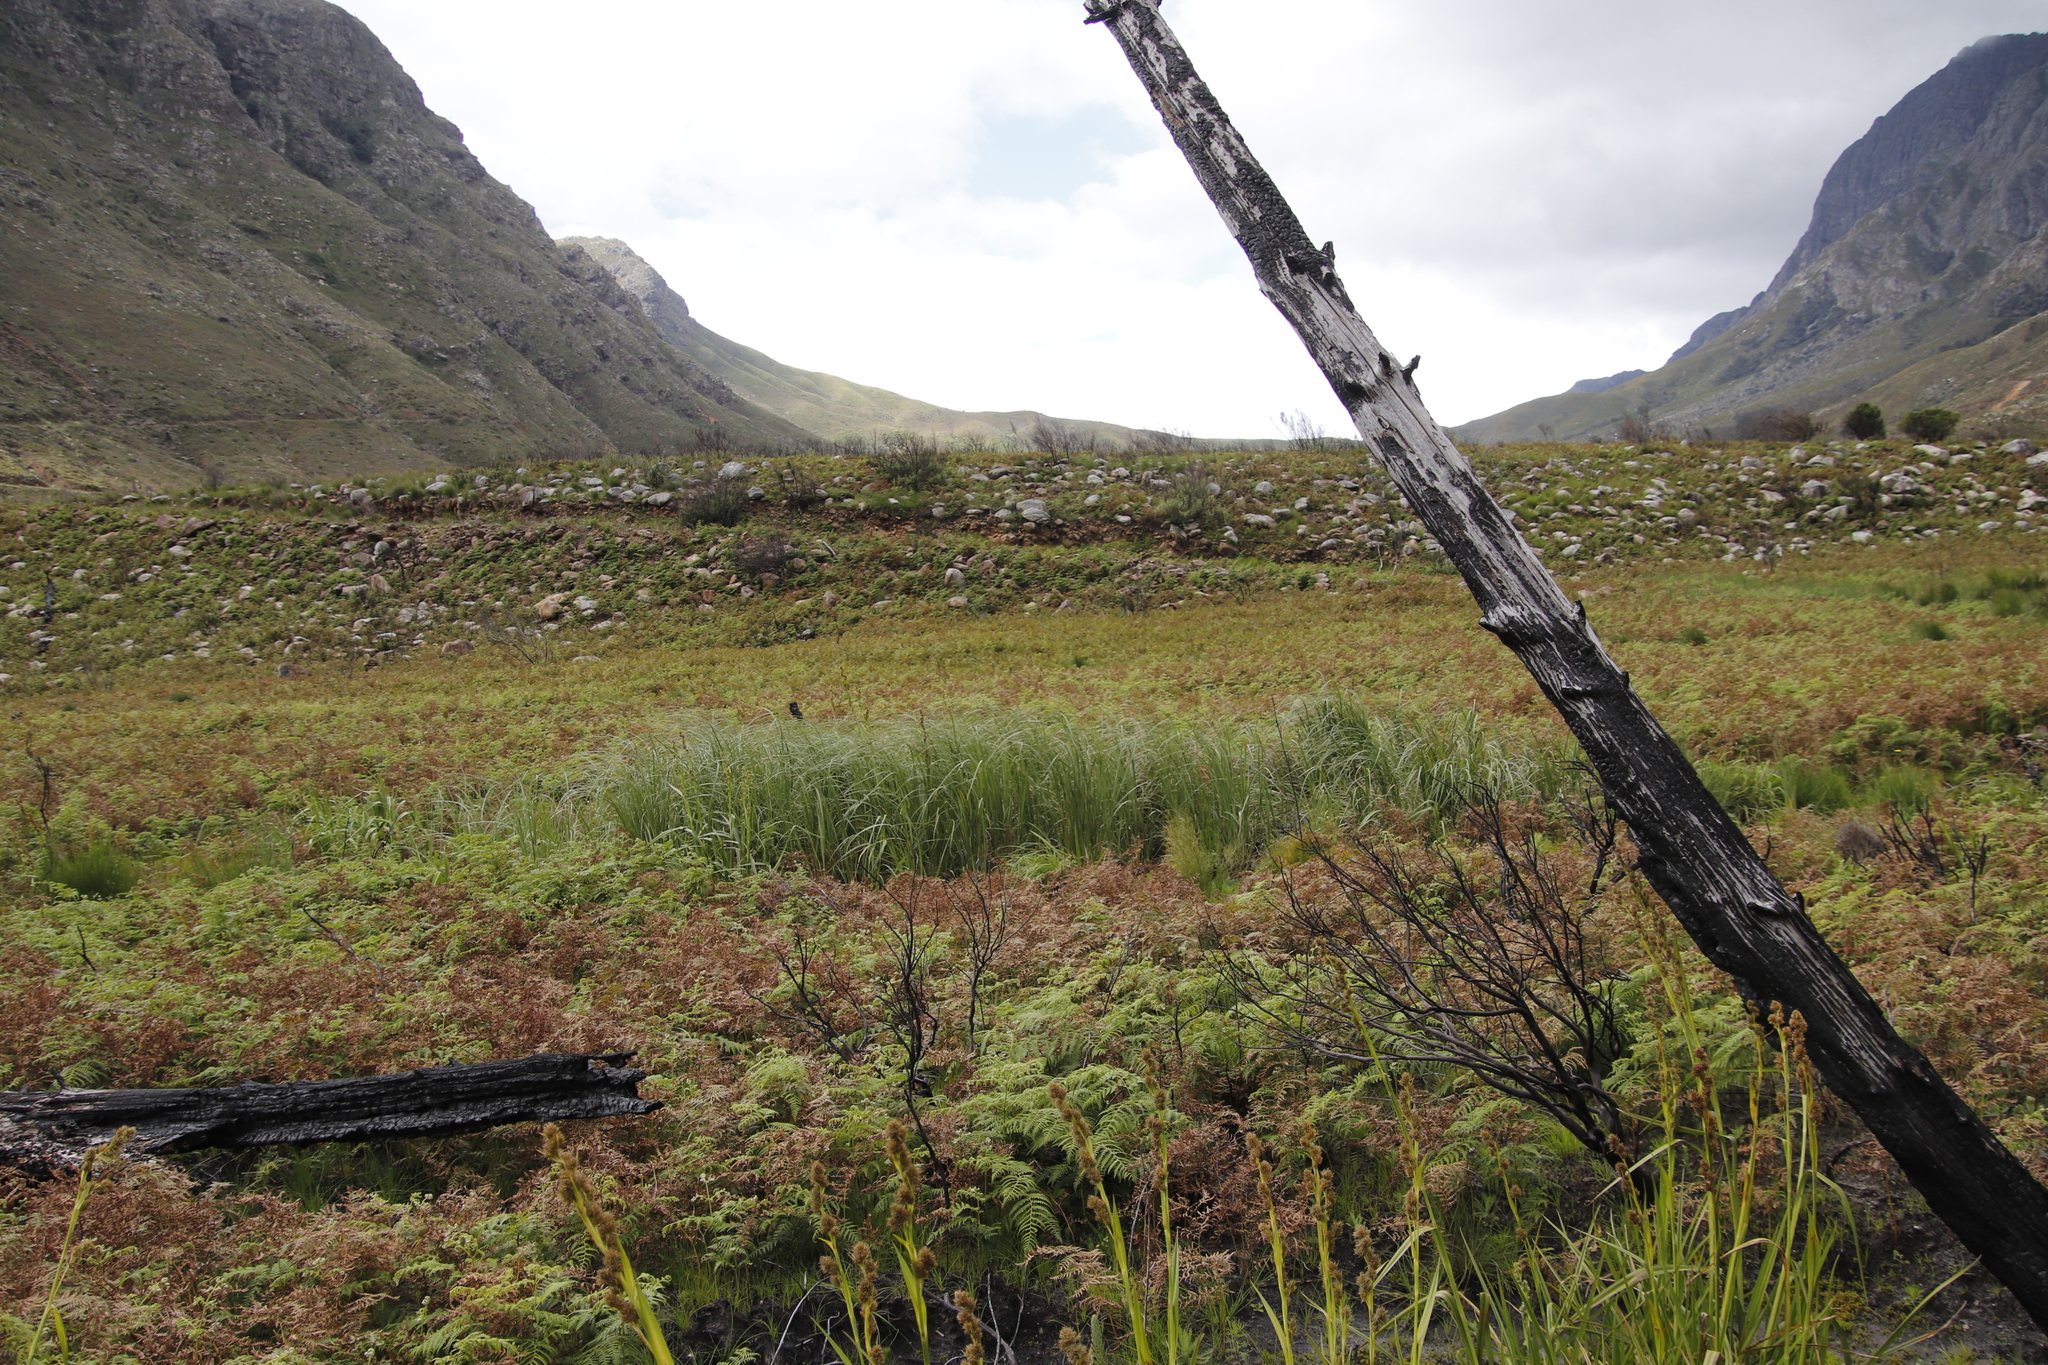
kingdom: Plantae
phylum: Tracheophyta
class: Liliopsida
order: Poales
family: Cyperaceae
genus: Carpha
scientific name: Carpha glomerata
